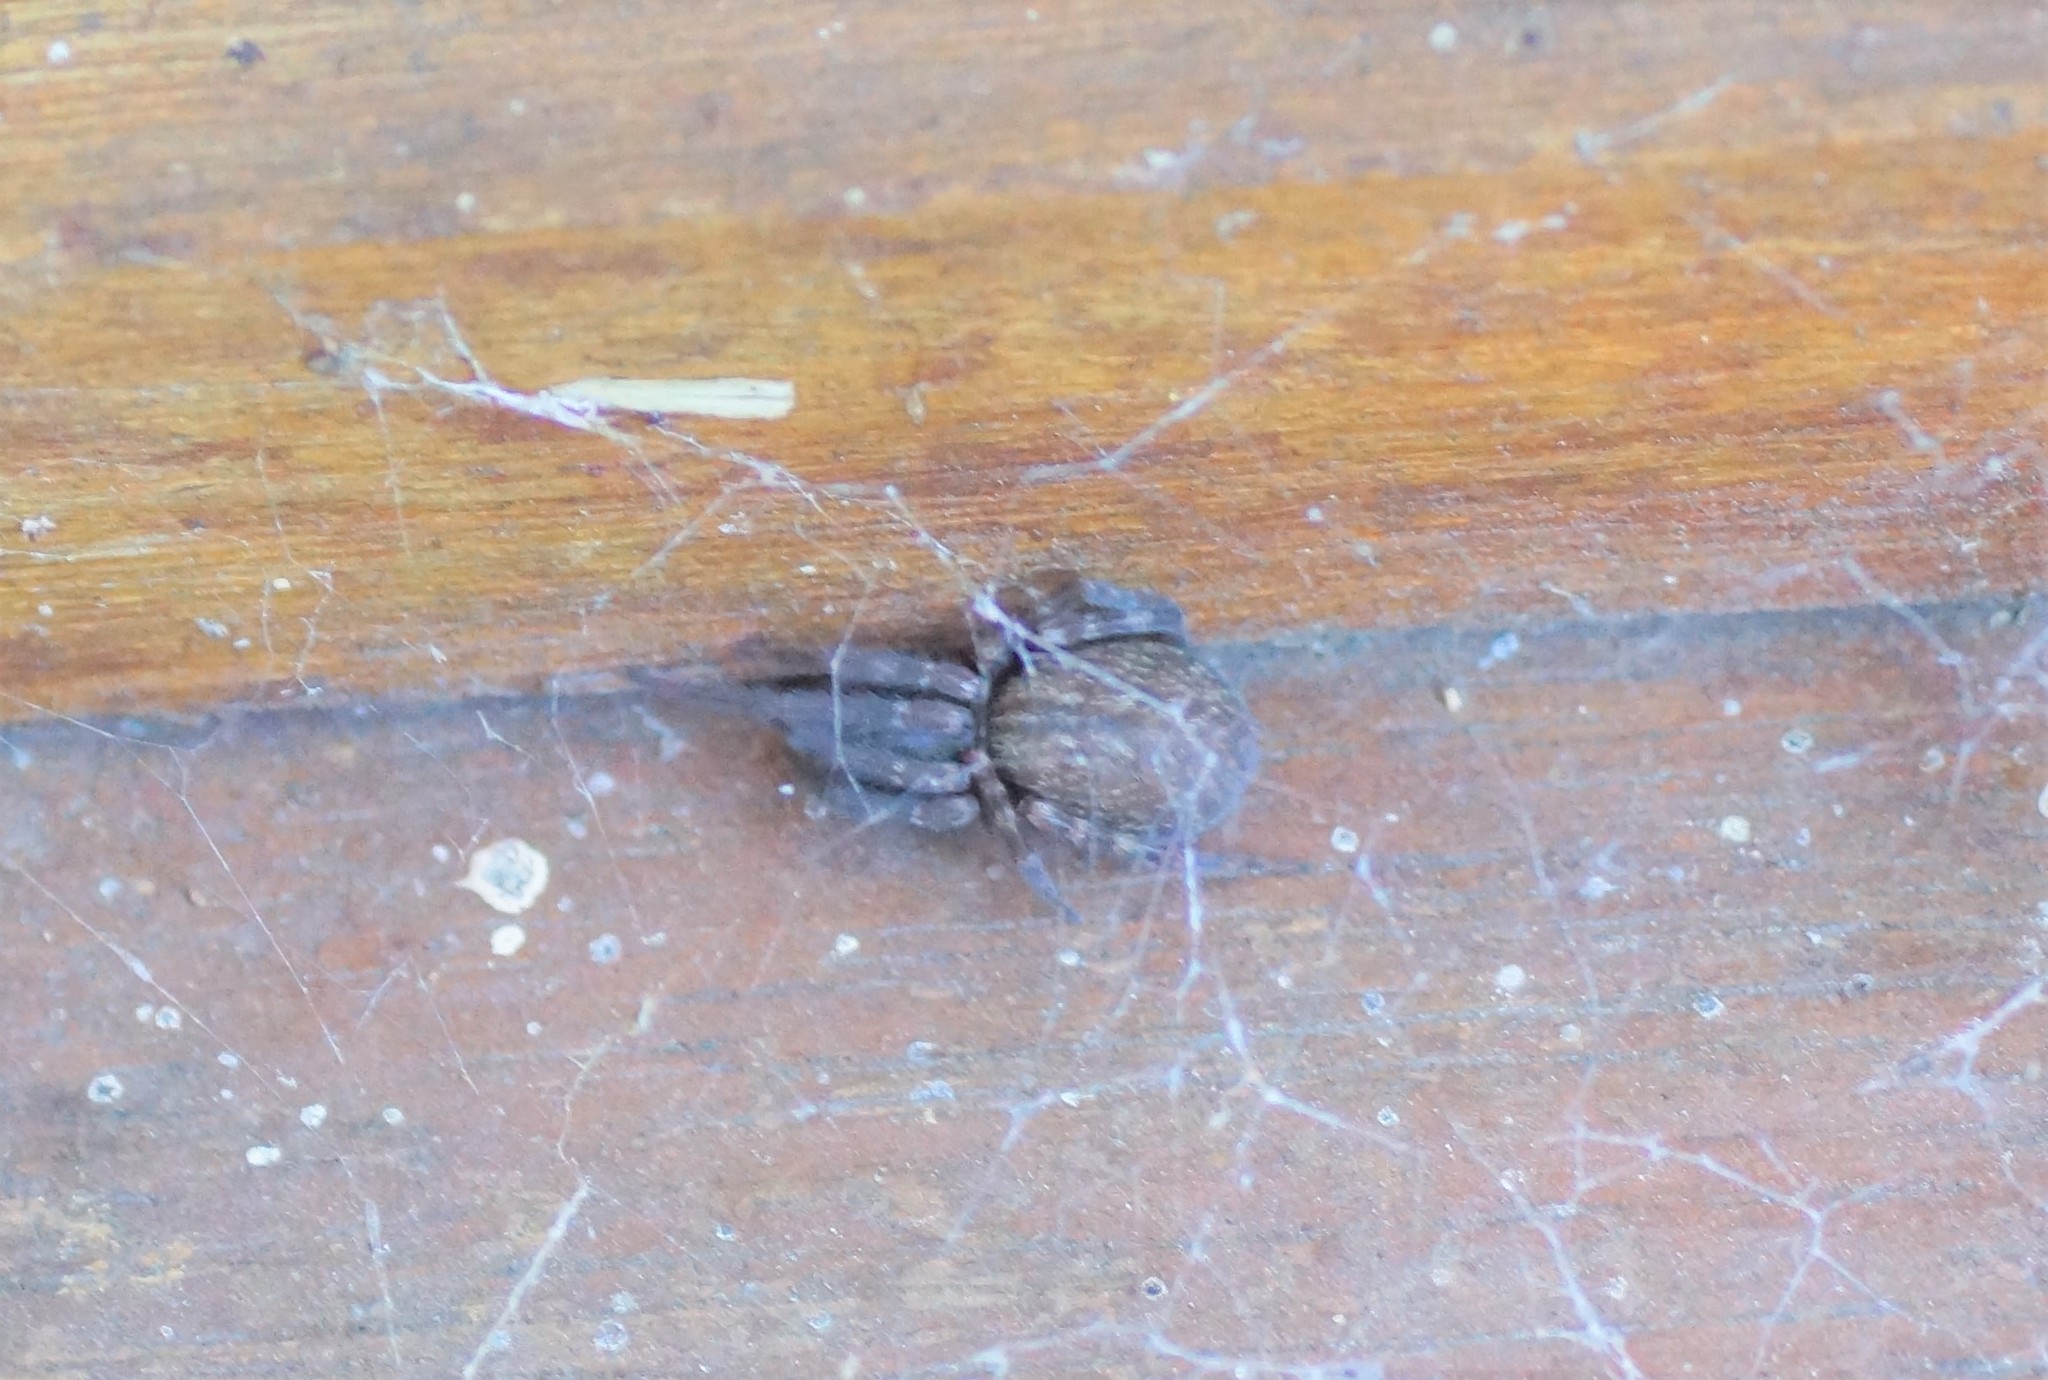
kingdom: Animalia
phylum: Arthropoda
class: Arachnida
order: Araneae
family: Desidae
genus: Badumna
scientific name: Badumna longinqua
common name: Gray house spider
